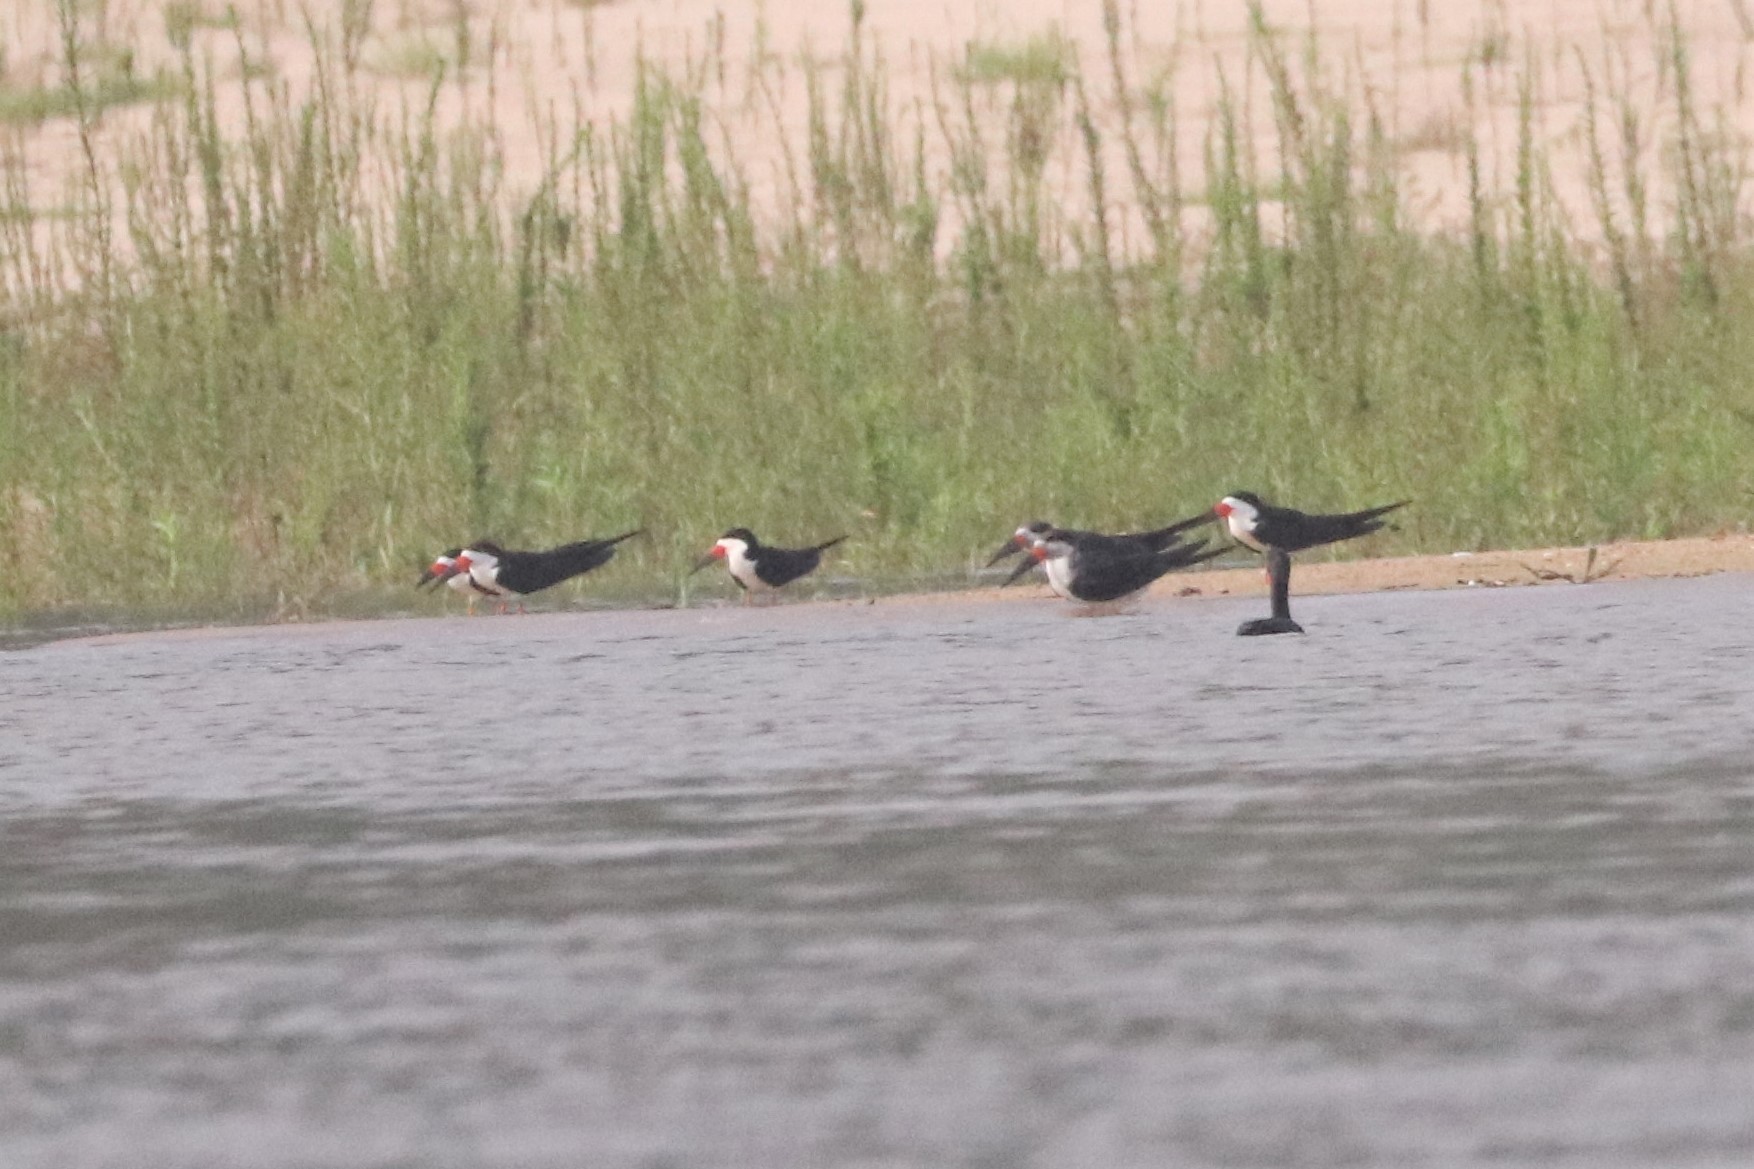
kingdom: Animalia
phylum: Chordata
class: Aves
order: Charadriiformes
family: Laridae
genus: Rynchops
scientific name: Rynchops niger
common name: Black skimmer
